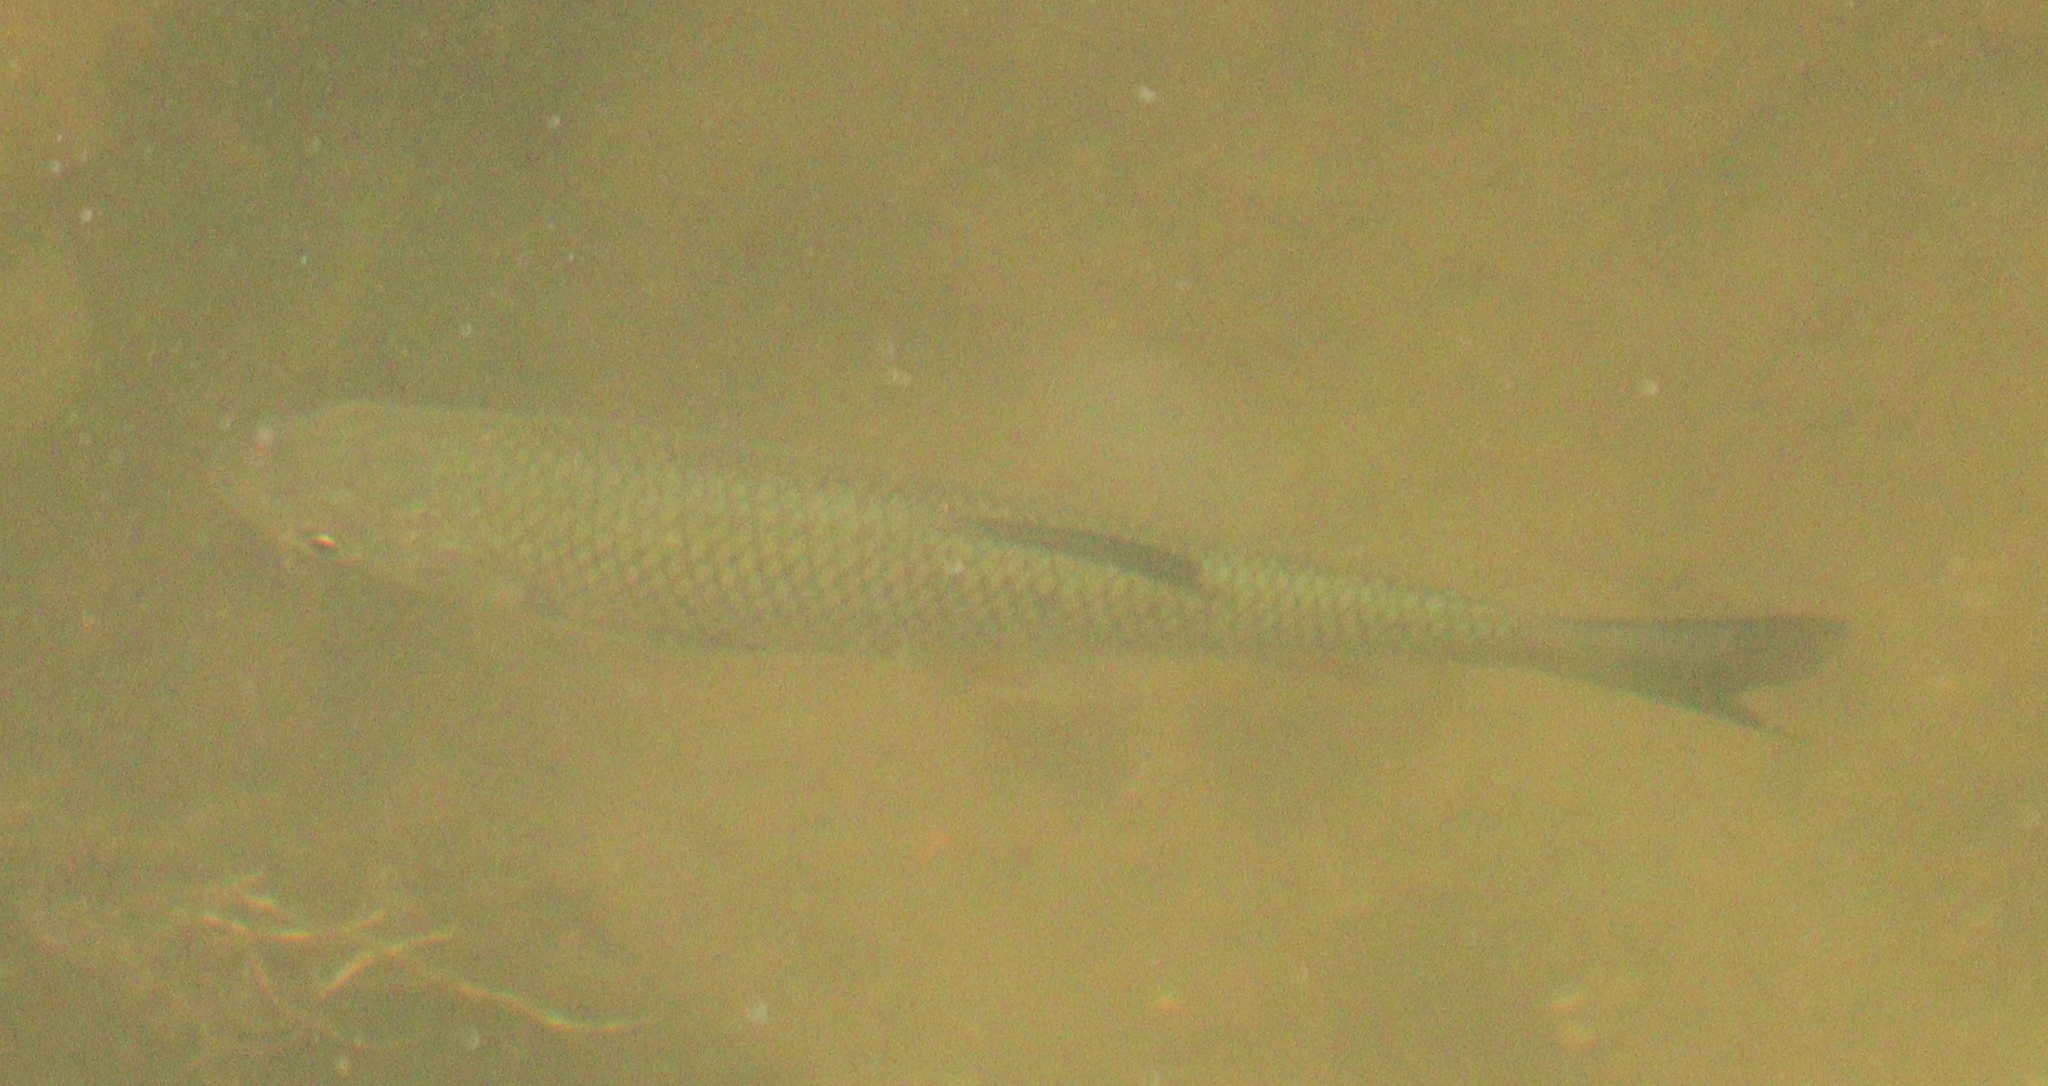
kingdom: Animalia
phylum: Chordata
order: Cypriniformes
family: Cyprinidae
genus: Squalius
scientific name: Squalius cephalus
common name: Chub
